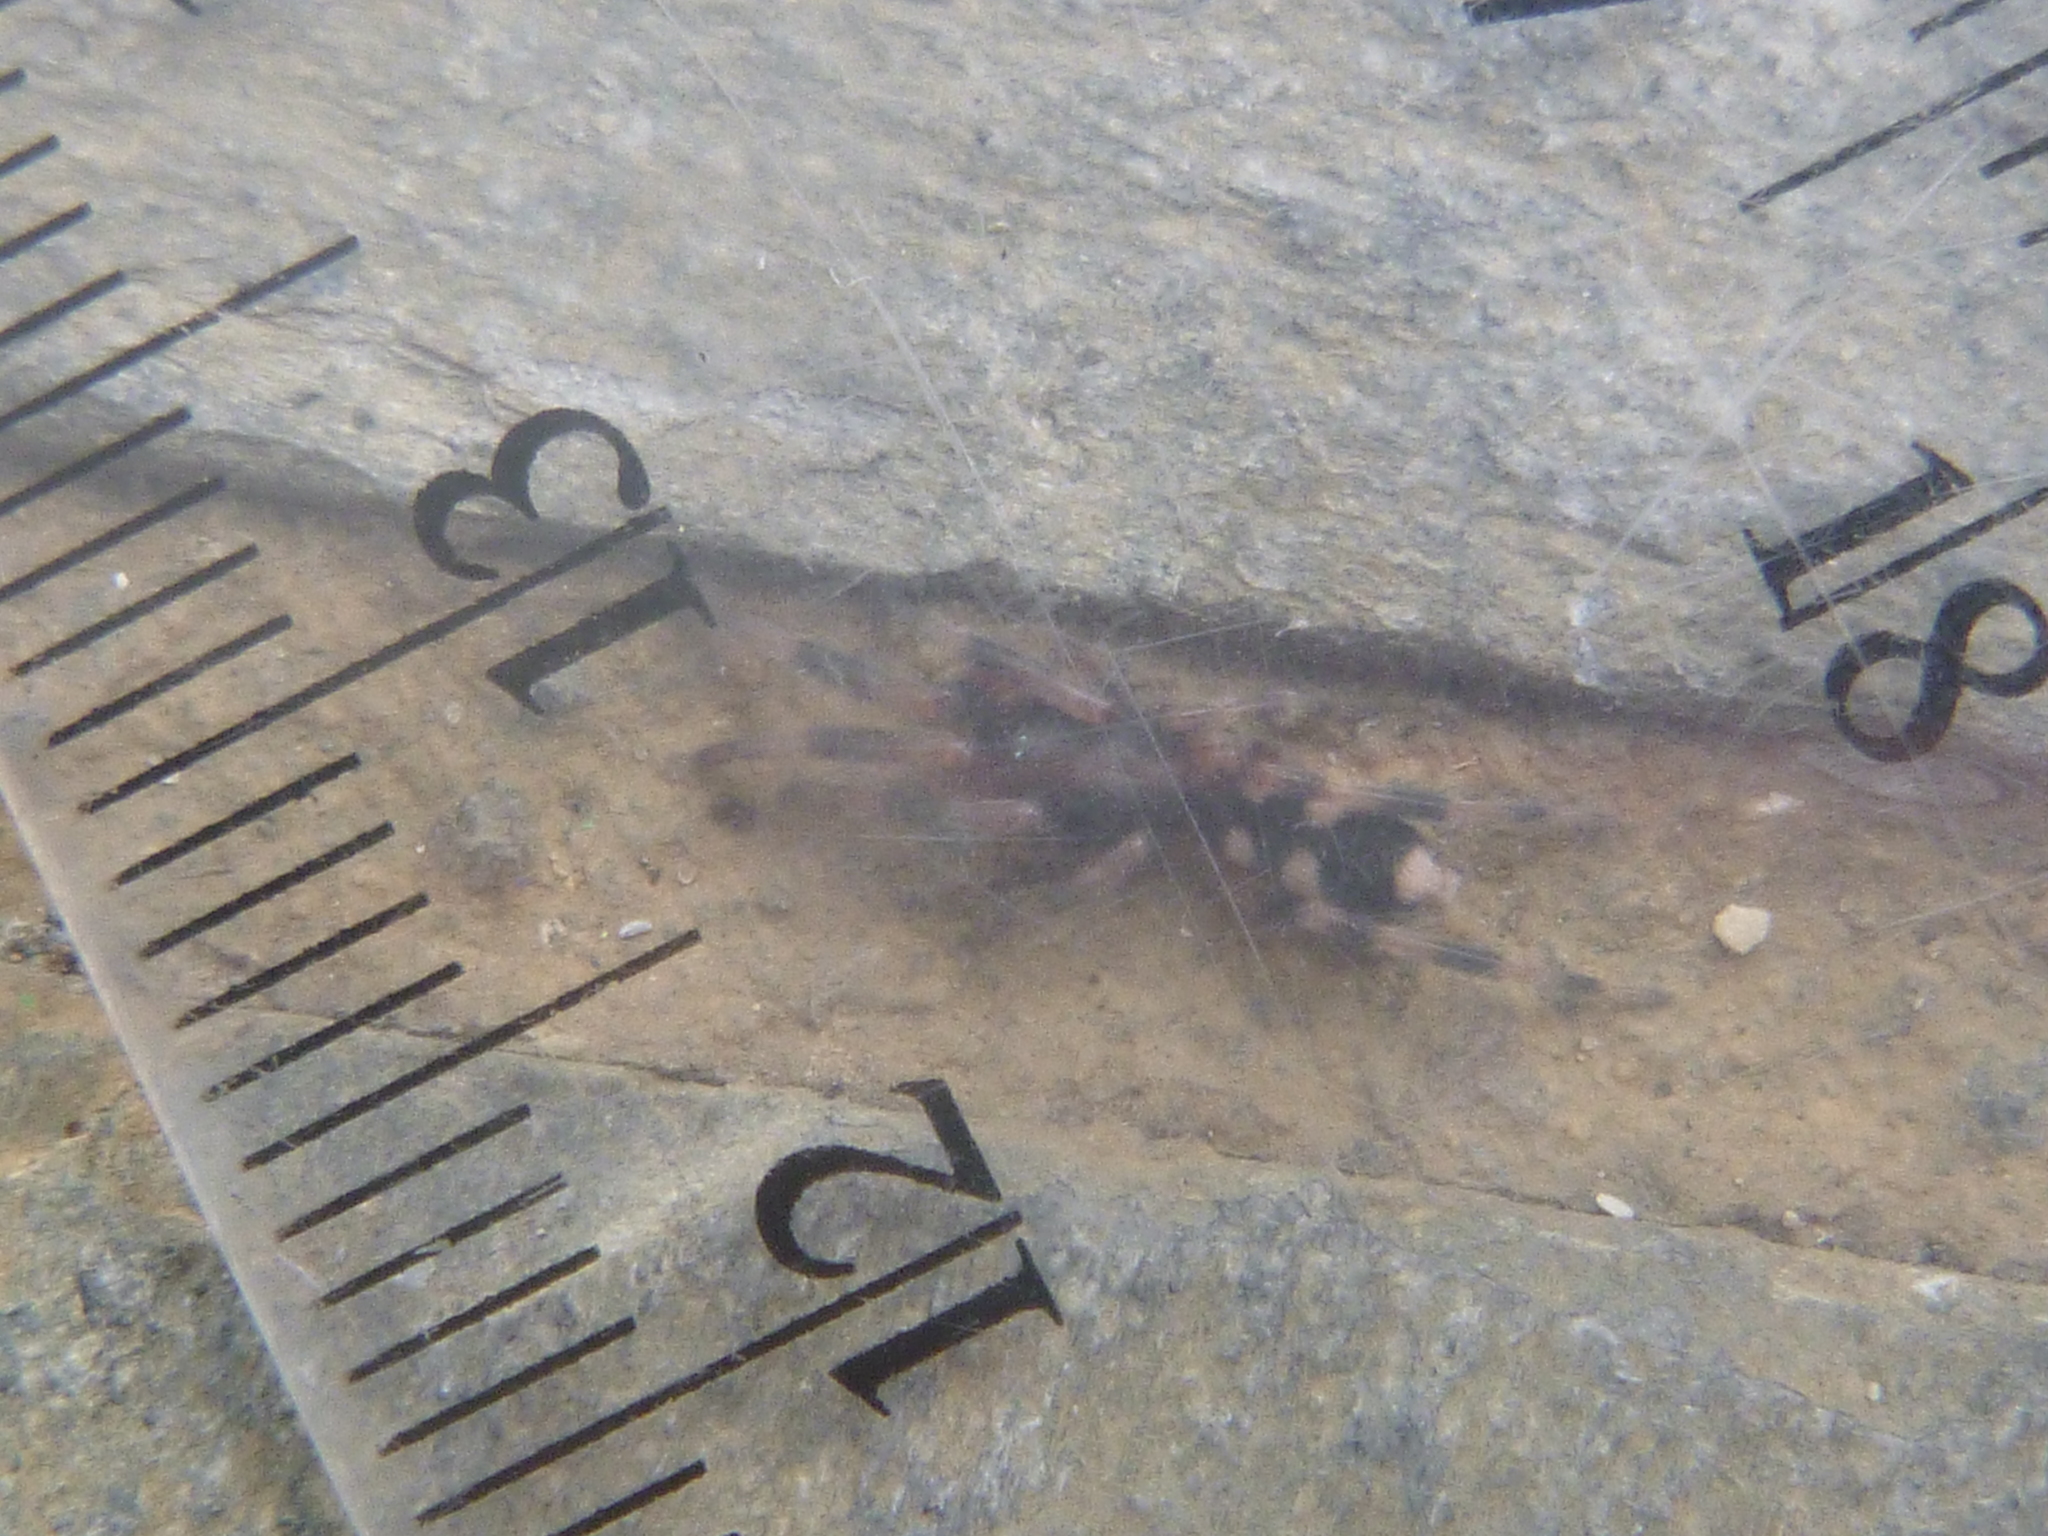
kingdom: Animalia
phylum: Arthropoda
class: Arachnida
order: Araneae
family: Lamponidae
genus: Lampona
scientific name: Lampona murina
